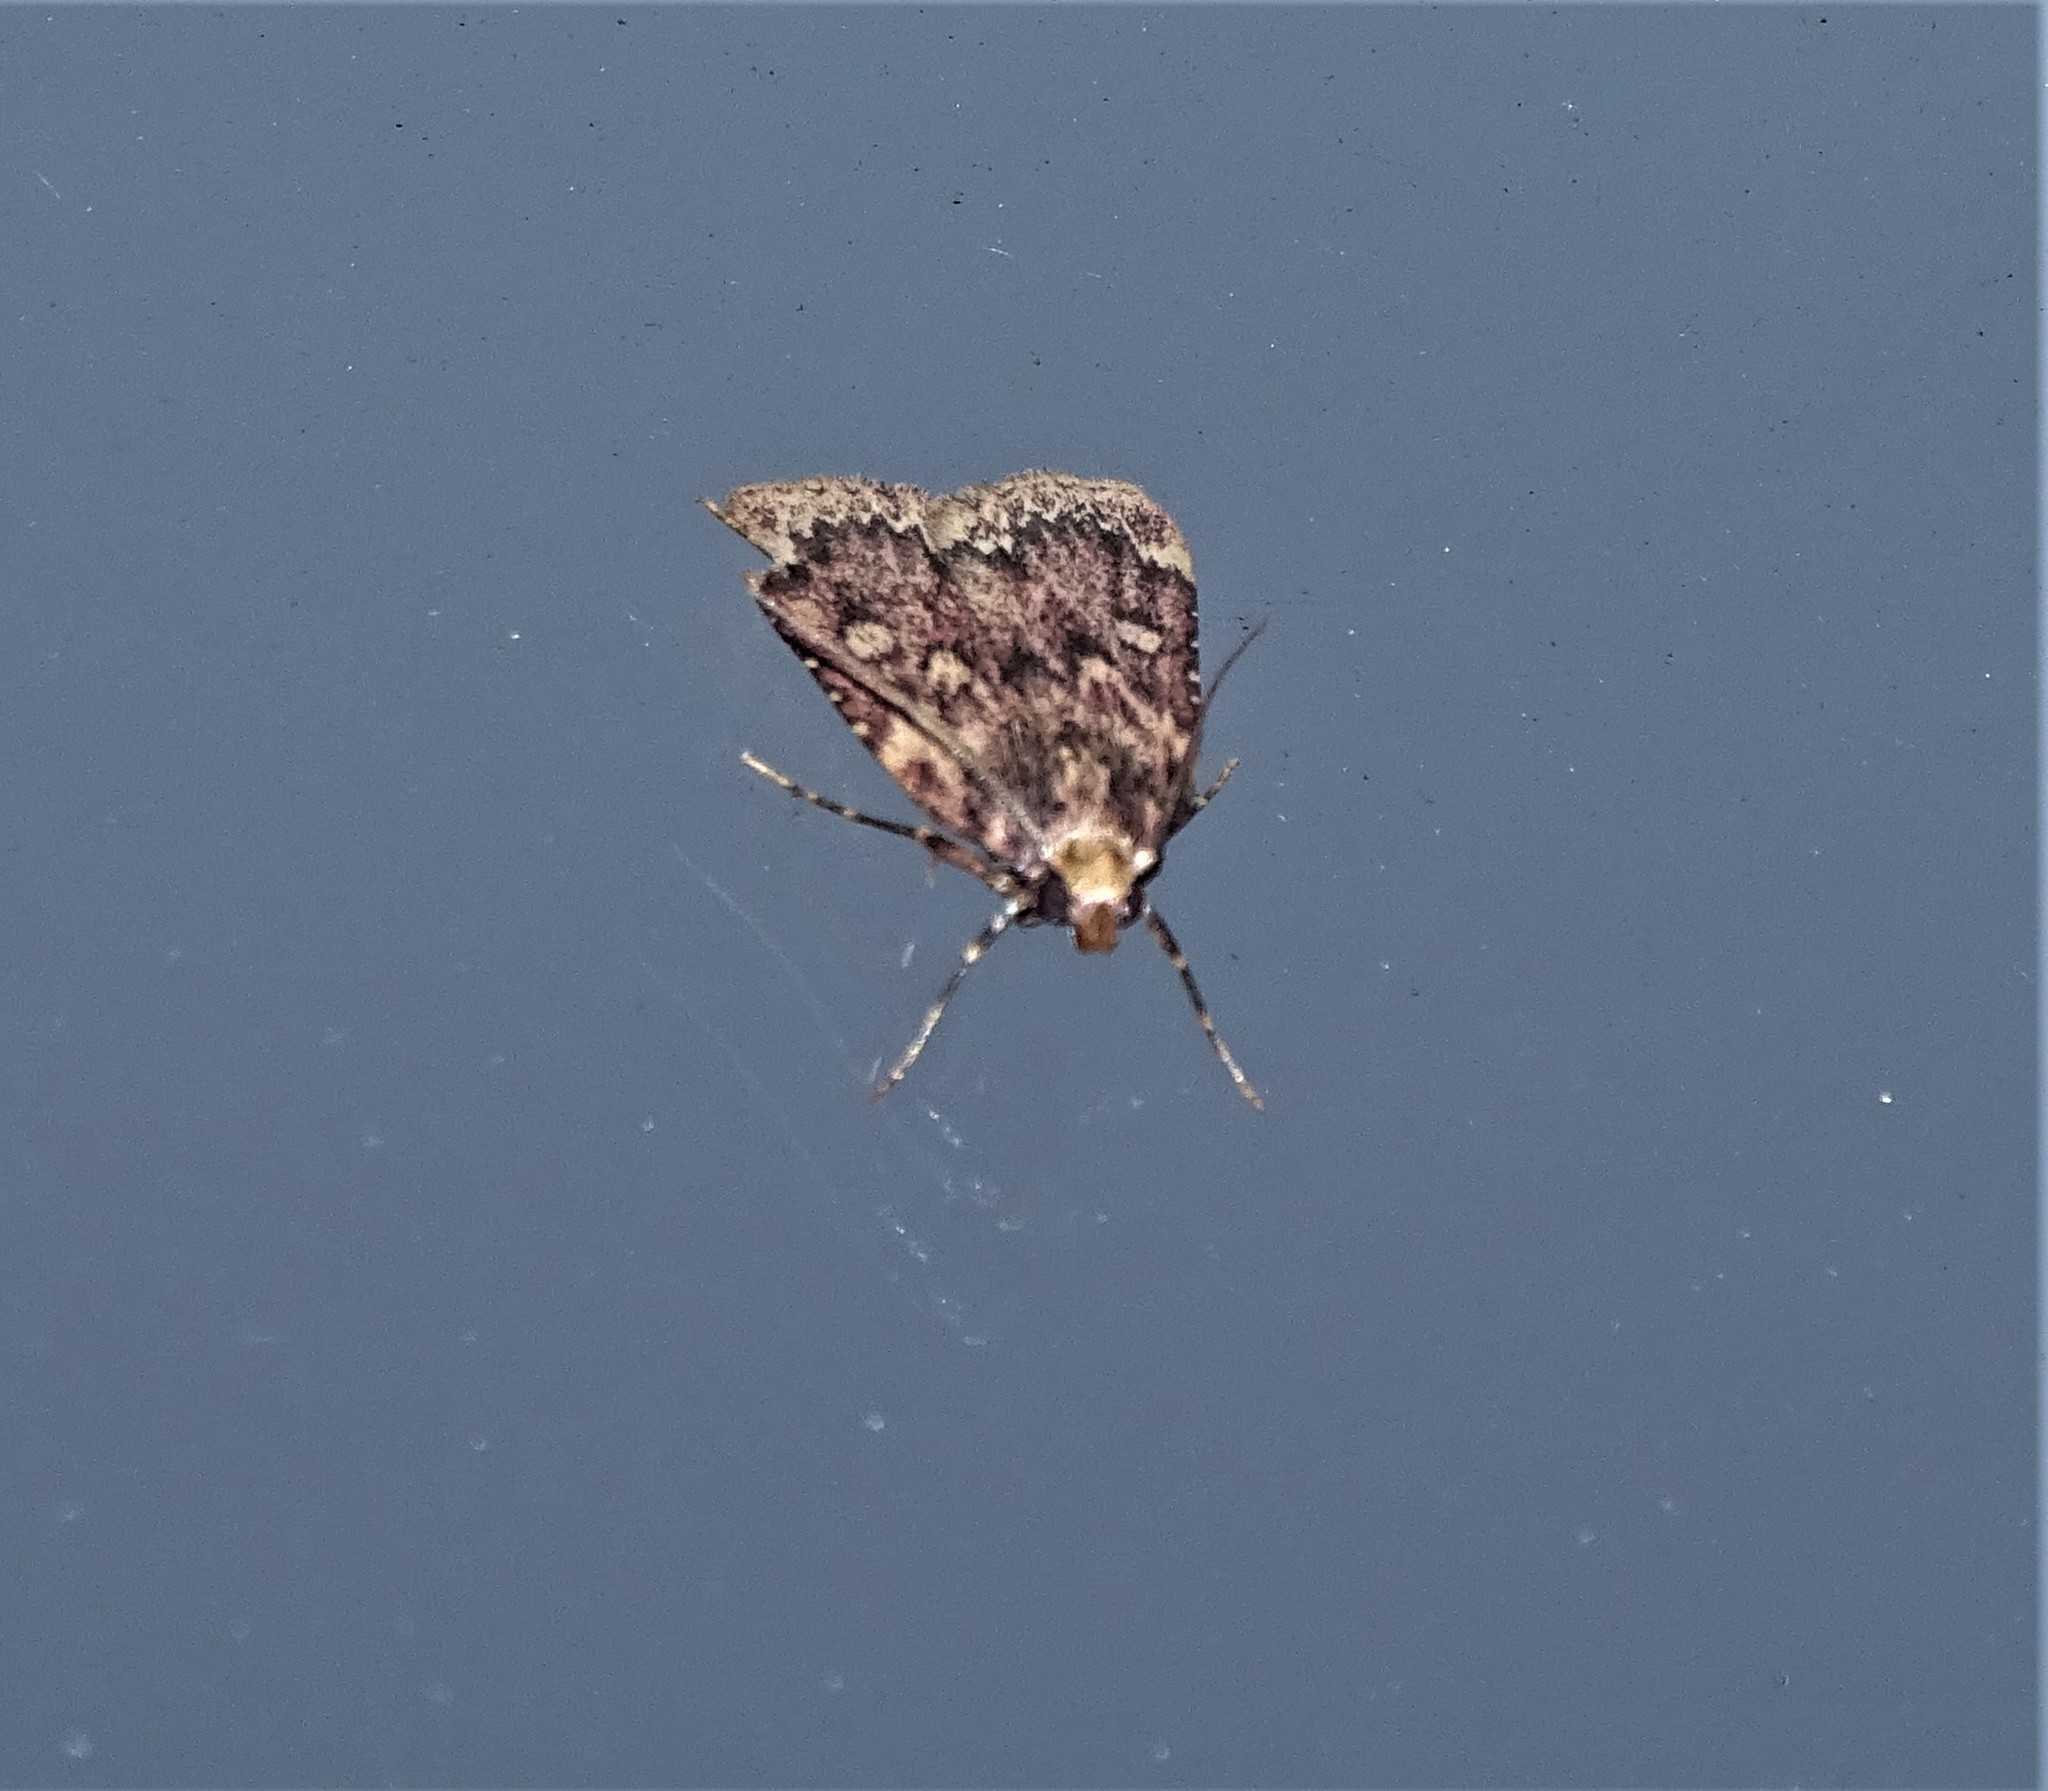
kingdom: Animalia
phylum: Arthropoda
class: Insecta
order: Lepidoptera
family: Pyralidae
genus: Aglossa
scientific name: Aglossa cuprina
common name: Grease moth
